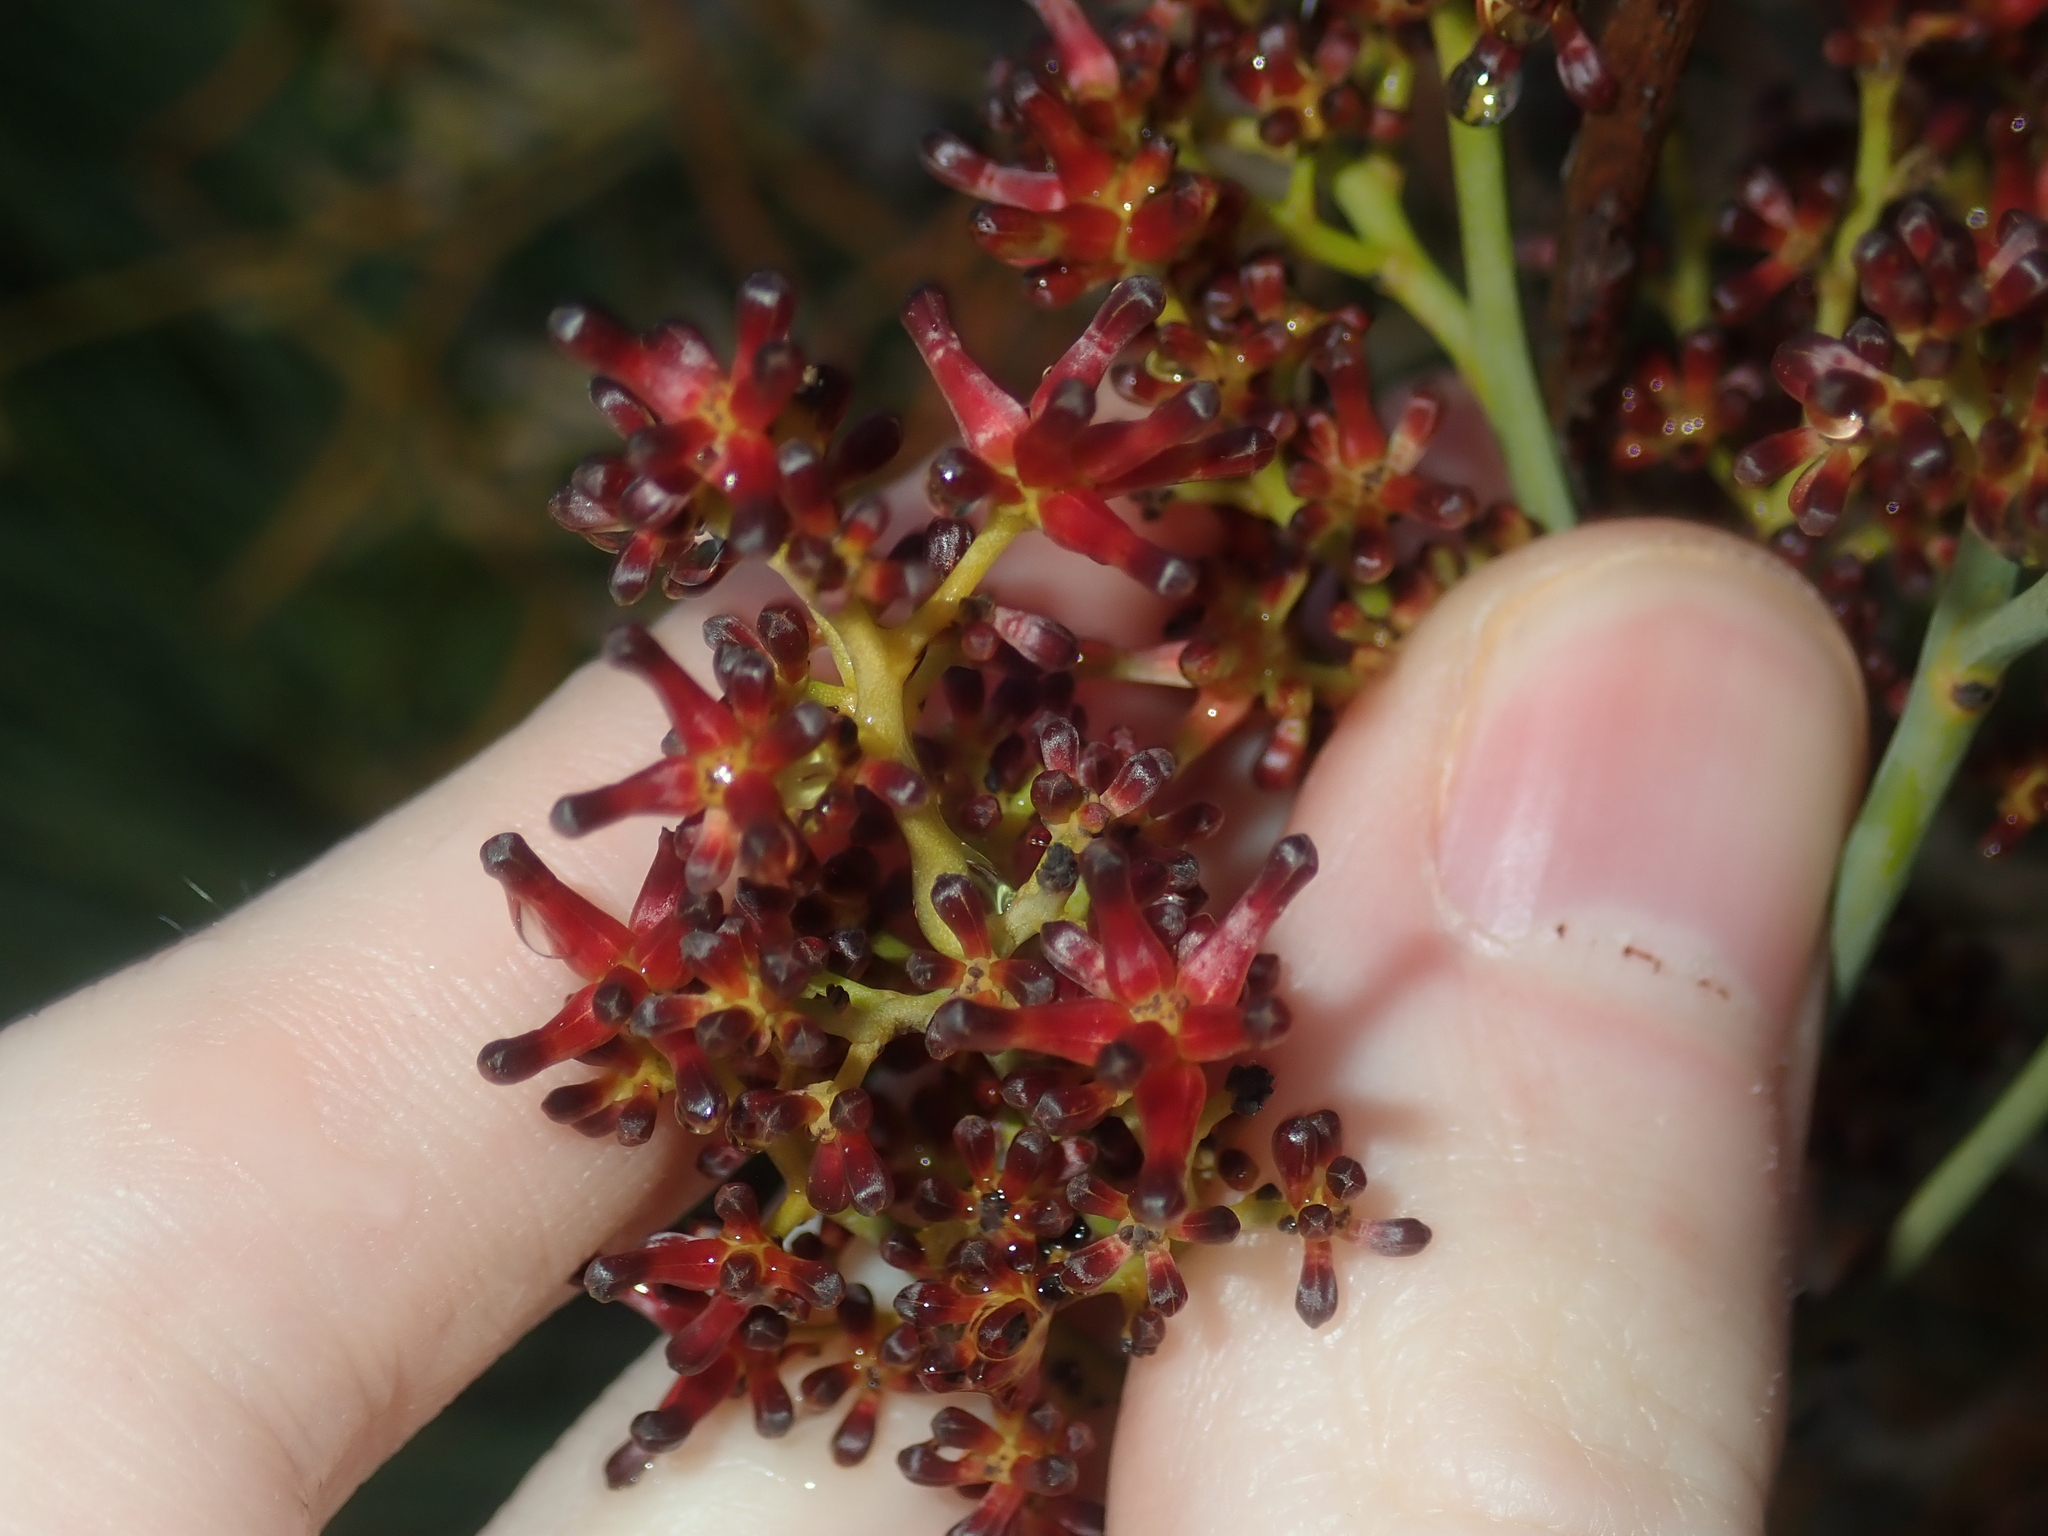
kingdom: Plantae
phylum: Tracheophyta
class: Magnoliopsida
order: Proteales
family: Proteaceae
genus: Stirlingia
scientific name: Stirlingia latifolia
